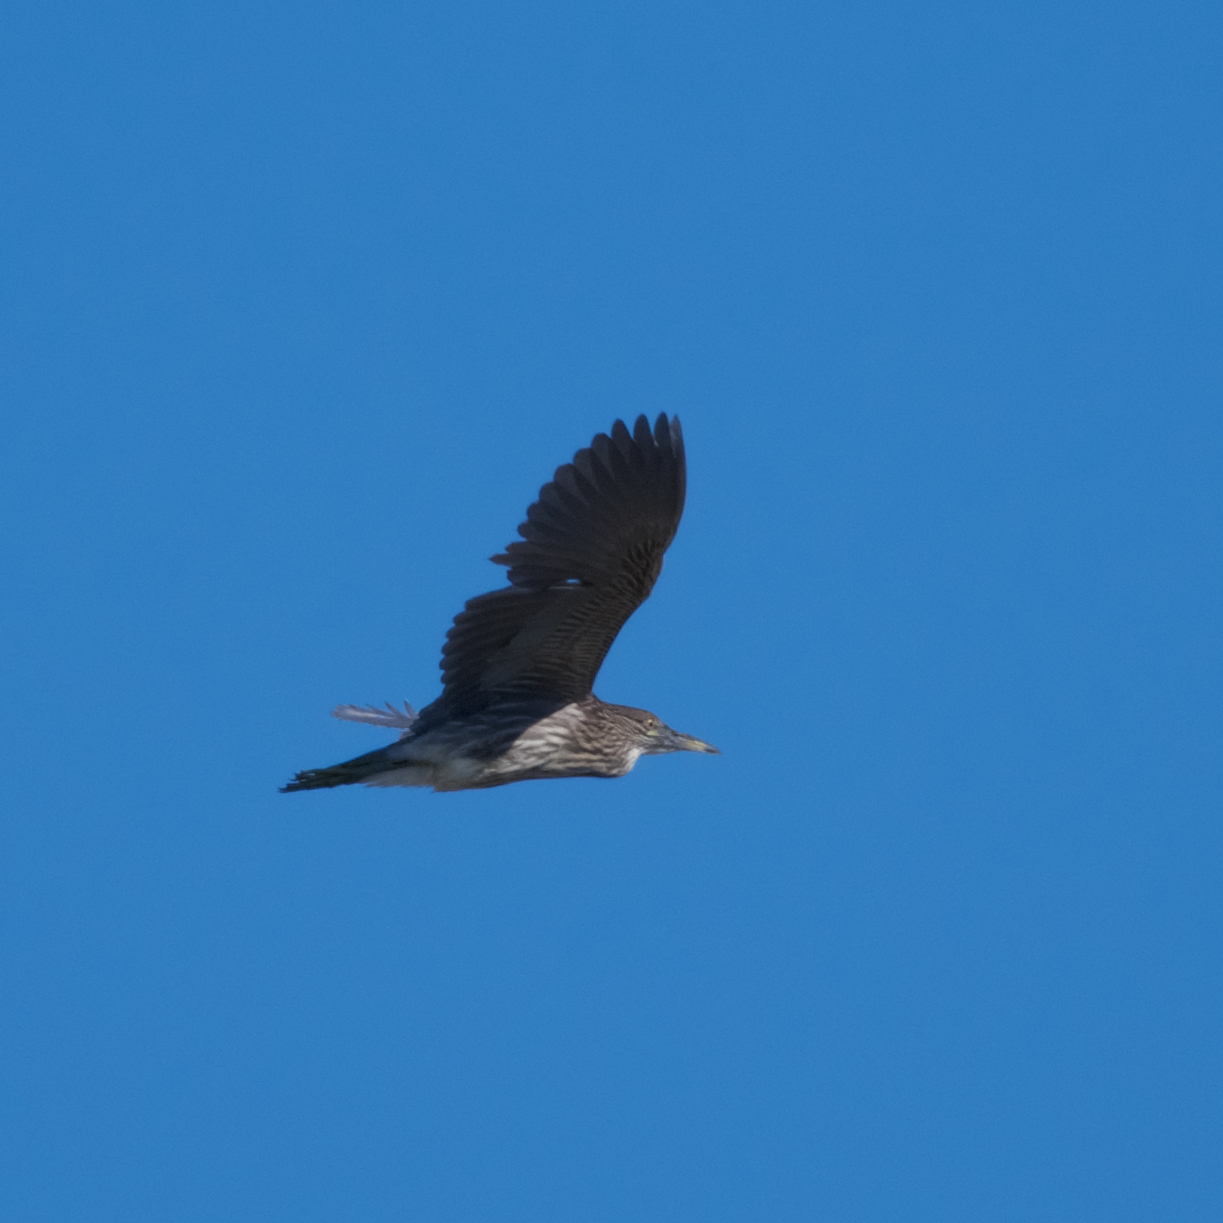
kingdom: Animalia
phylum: Chordata
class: Aves
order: Pelecaniformes
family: Ardeidae
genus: Nycticorax
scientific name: Nycticorax nycticorax
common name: Black-crowned night heron
